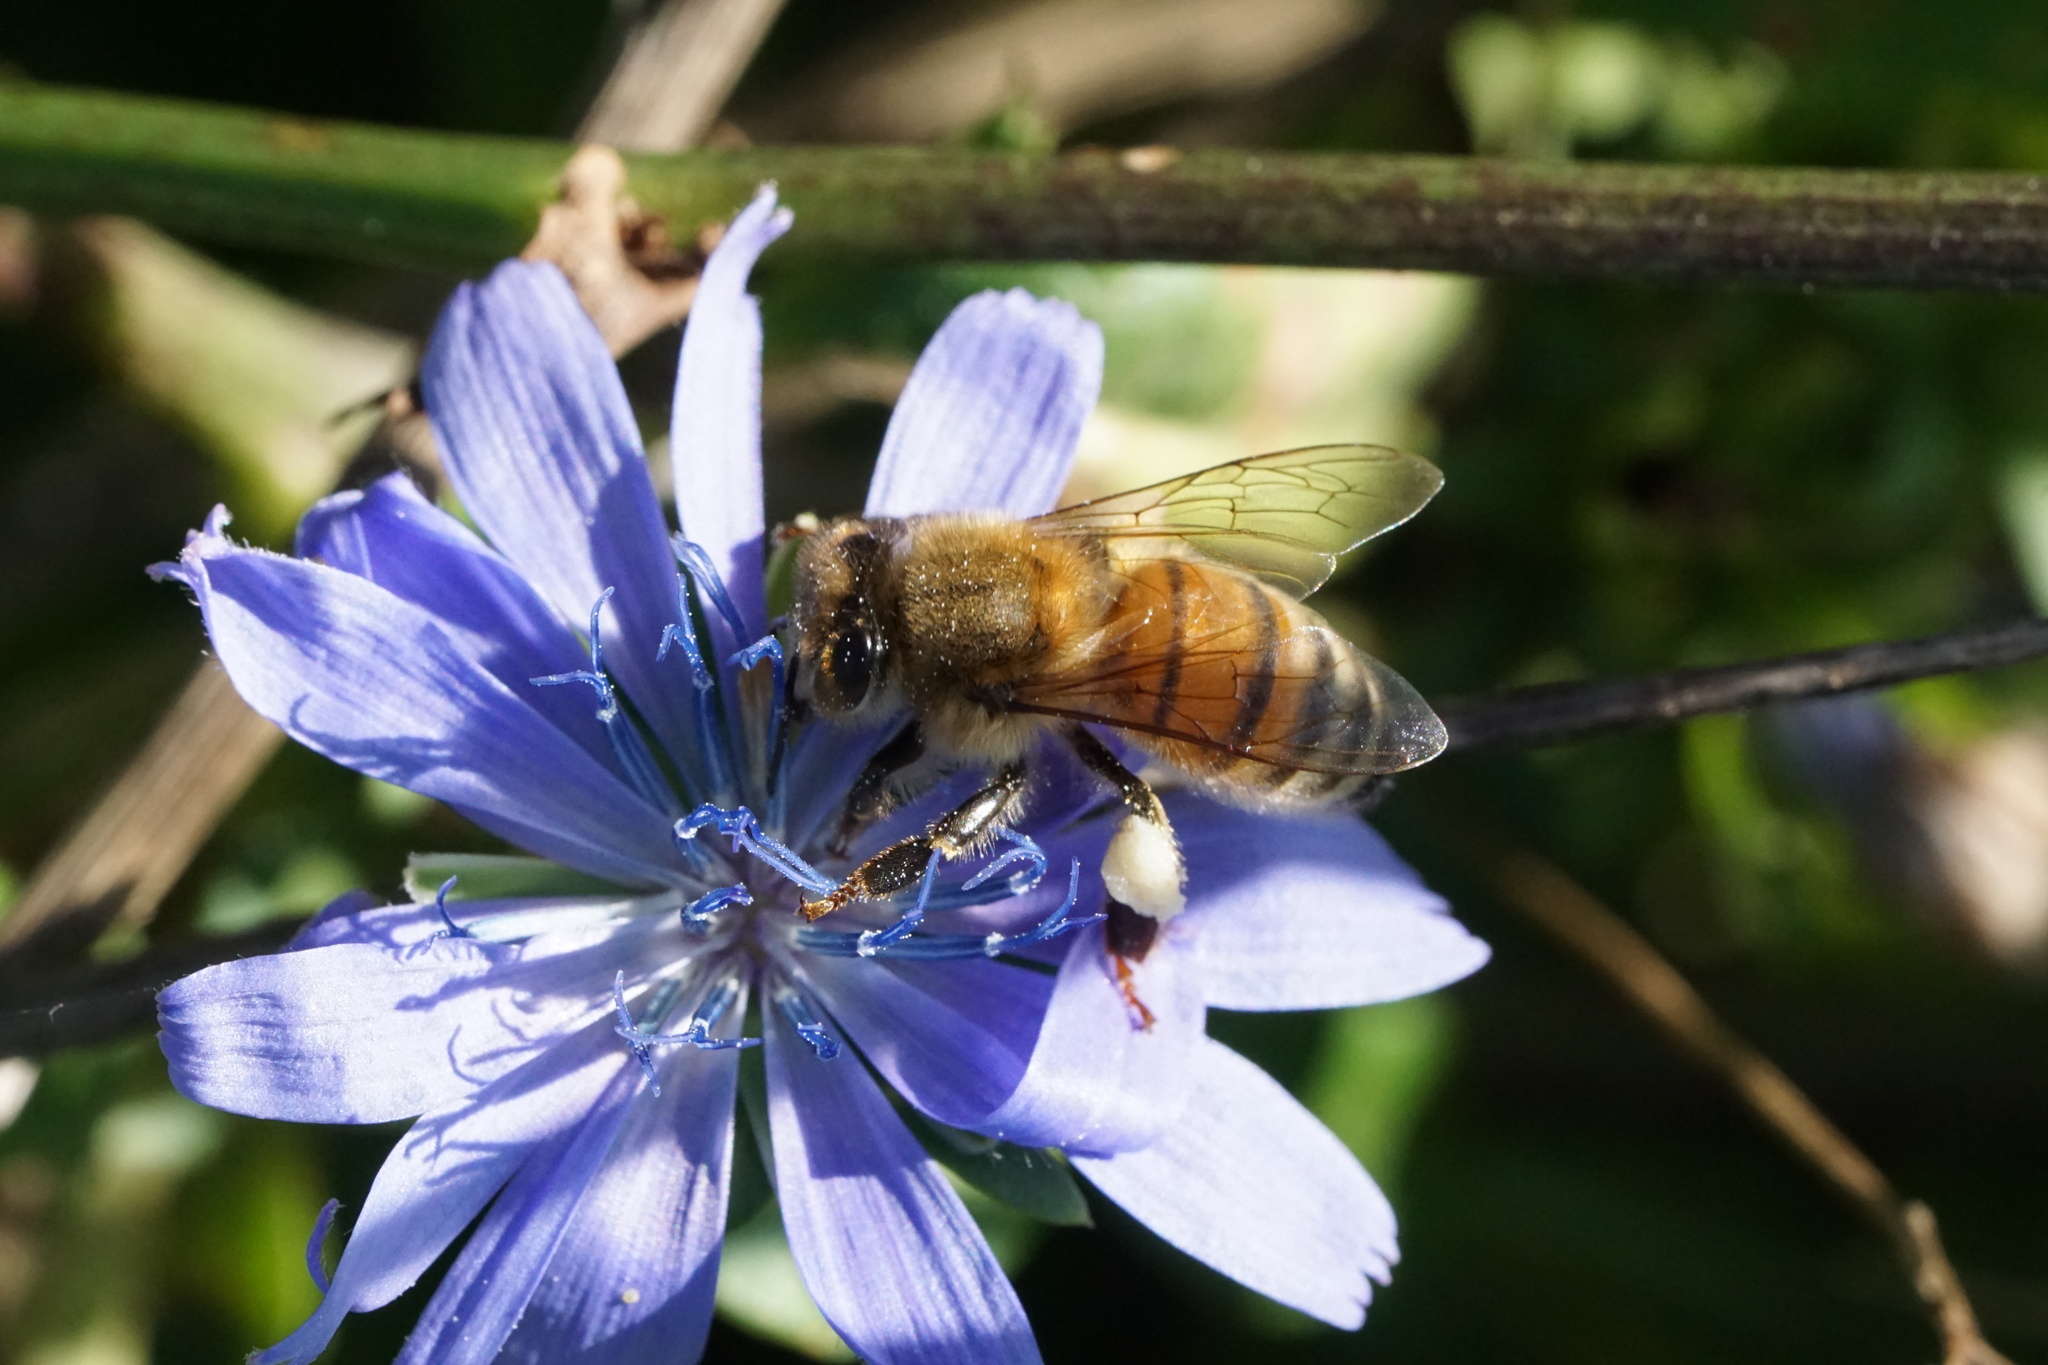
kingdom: Animalia
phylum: Arthropoda
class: Insecta
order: Hymenoptera
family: Apidae
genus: Apis
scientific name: Apis mellifera
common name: Honey bee
